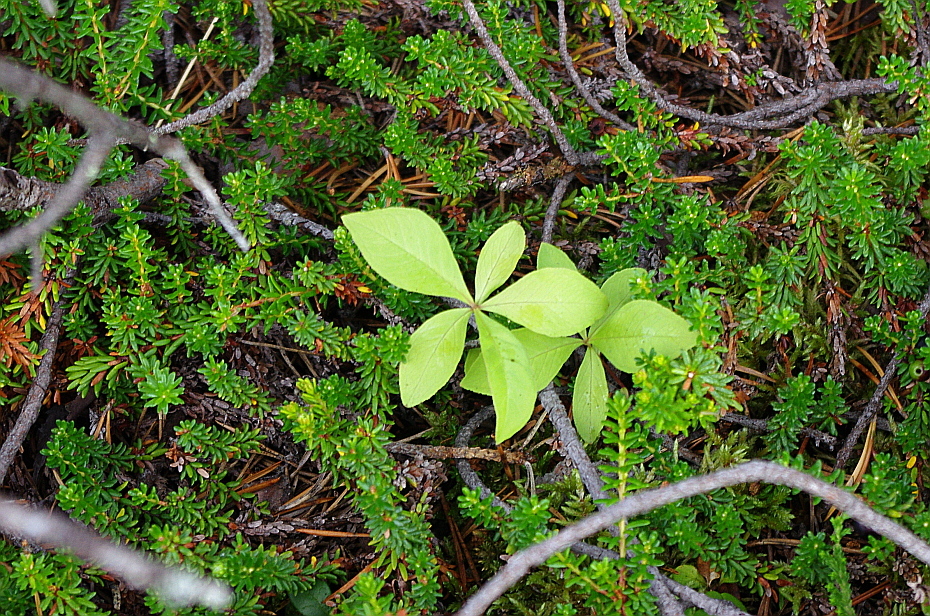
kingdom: Plantae
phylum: Tracheophyta
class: Magnoliopsida
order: Ericales
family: Primulaceae
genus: Lysimachia
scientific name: Lysimachia europaea
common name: Arctic starflower
